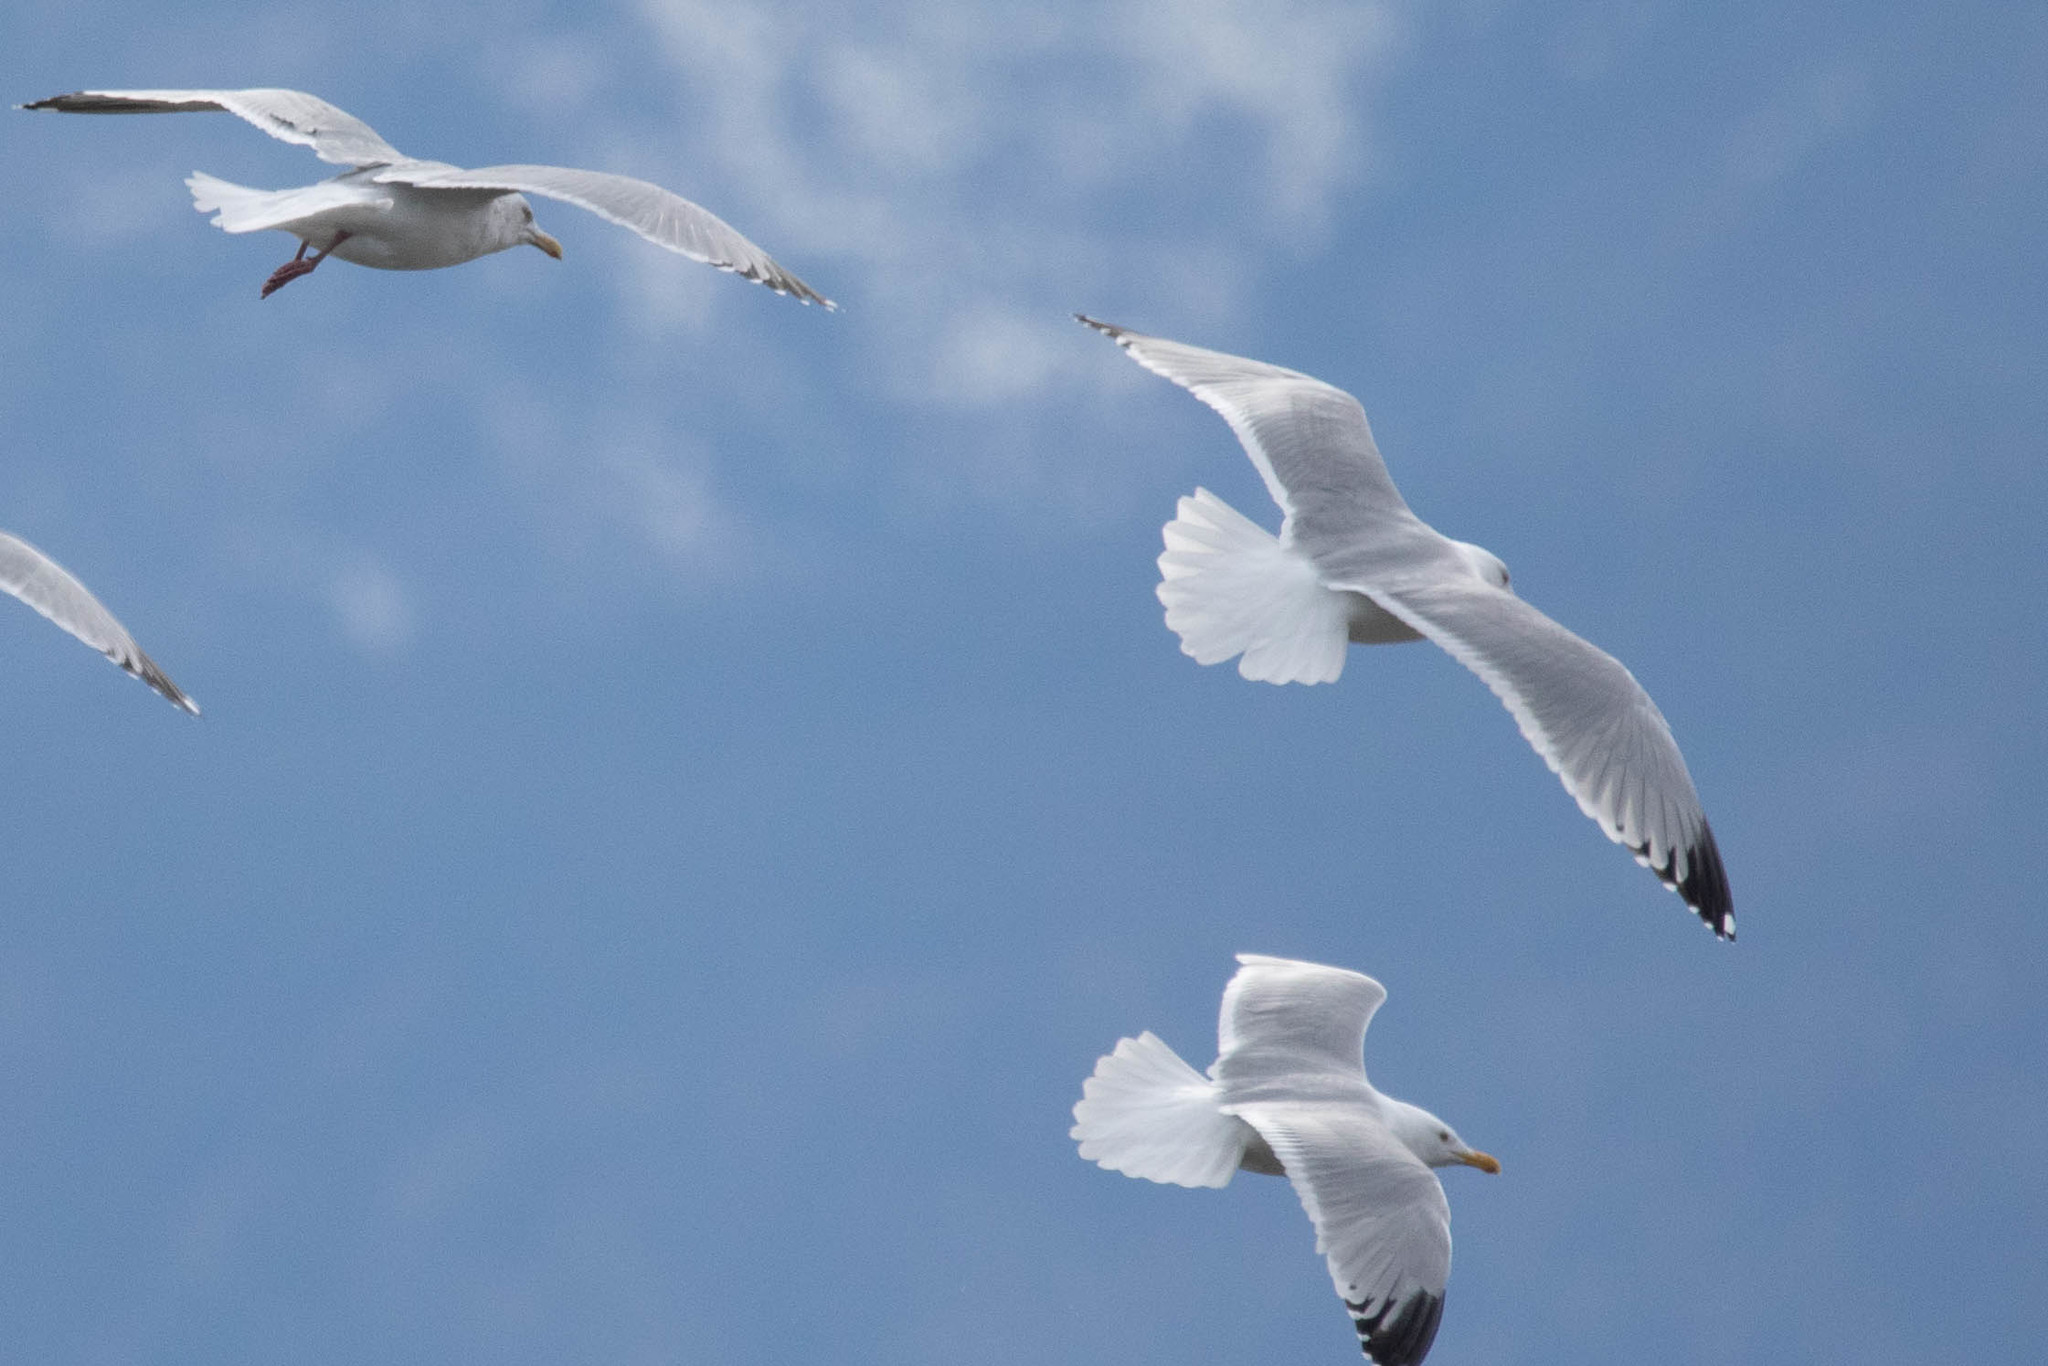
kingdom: Animalia
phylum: Chordata
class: Aves
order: Charadriiformes
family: Laridae
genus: Larus
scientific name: Larus argentatus
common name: Herring gull
